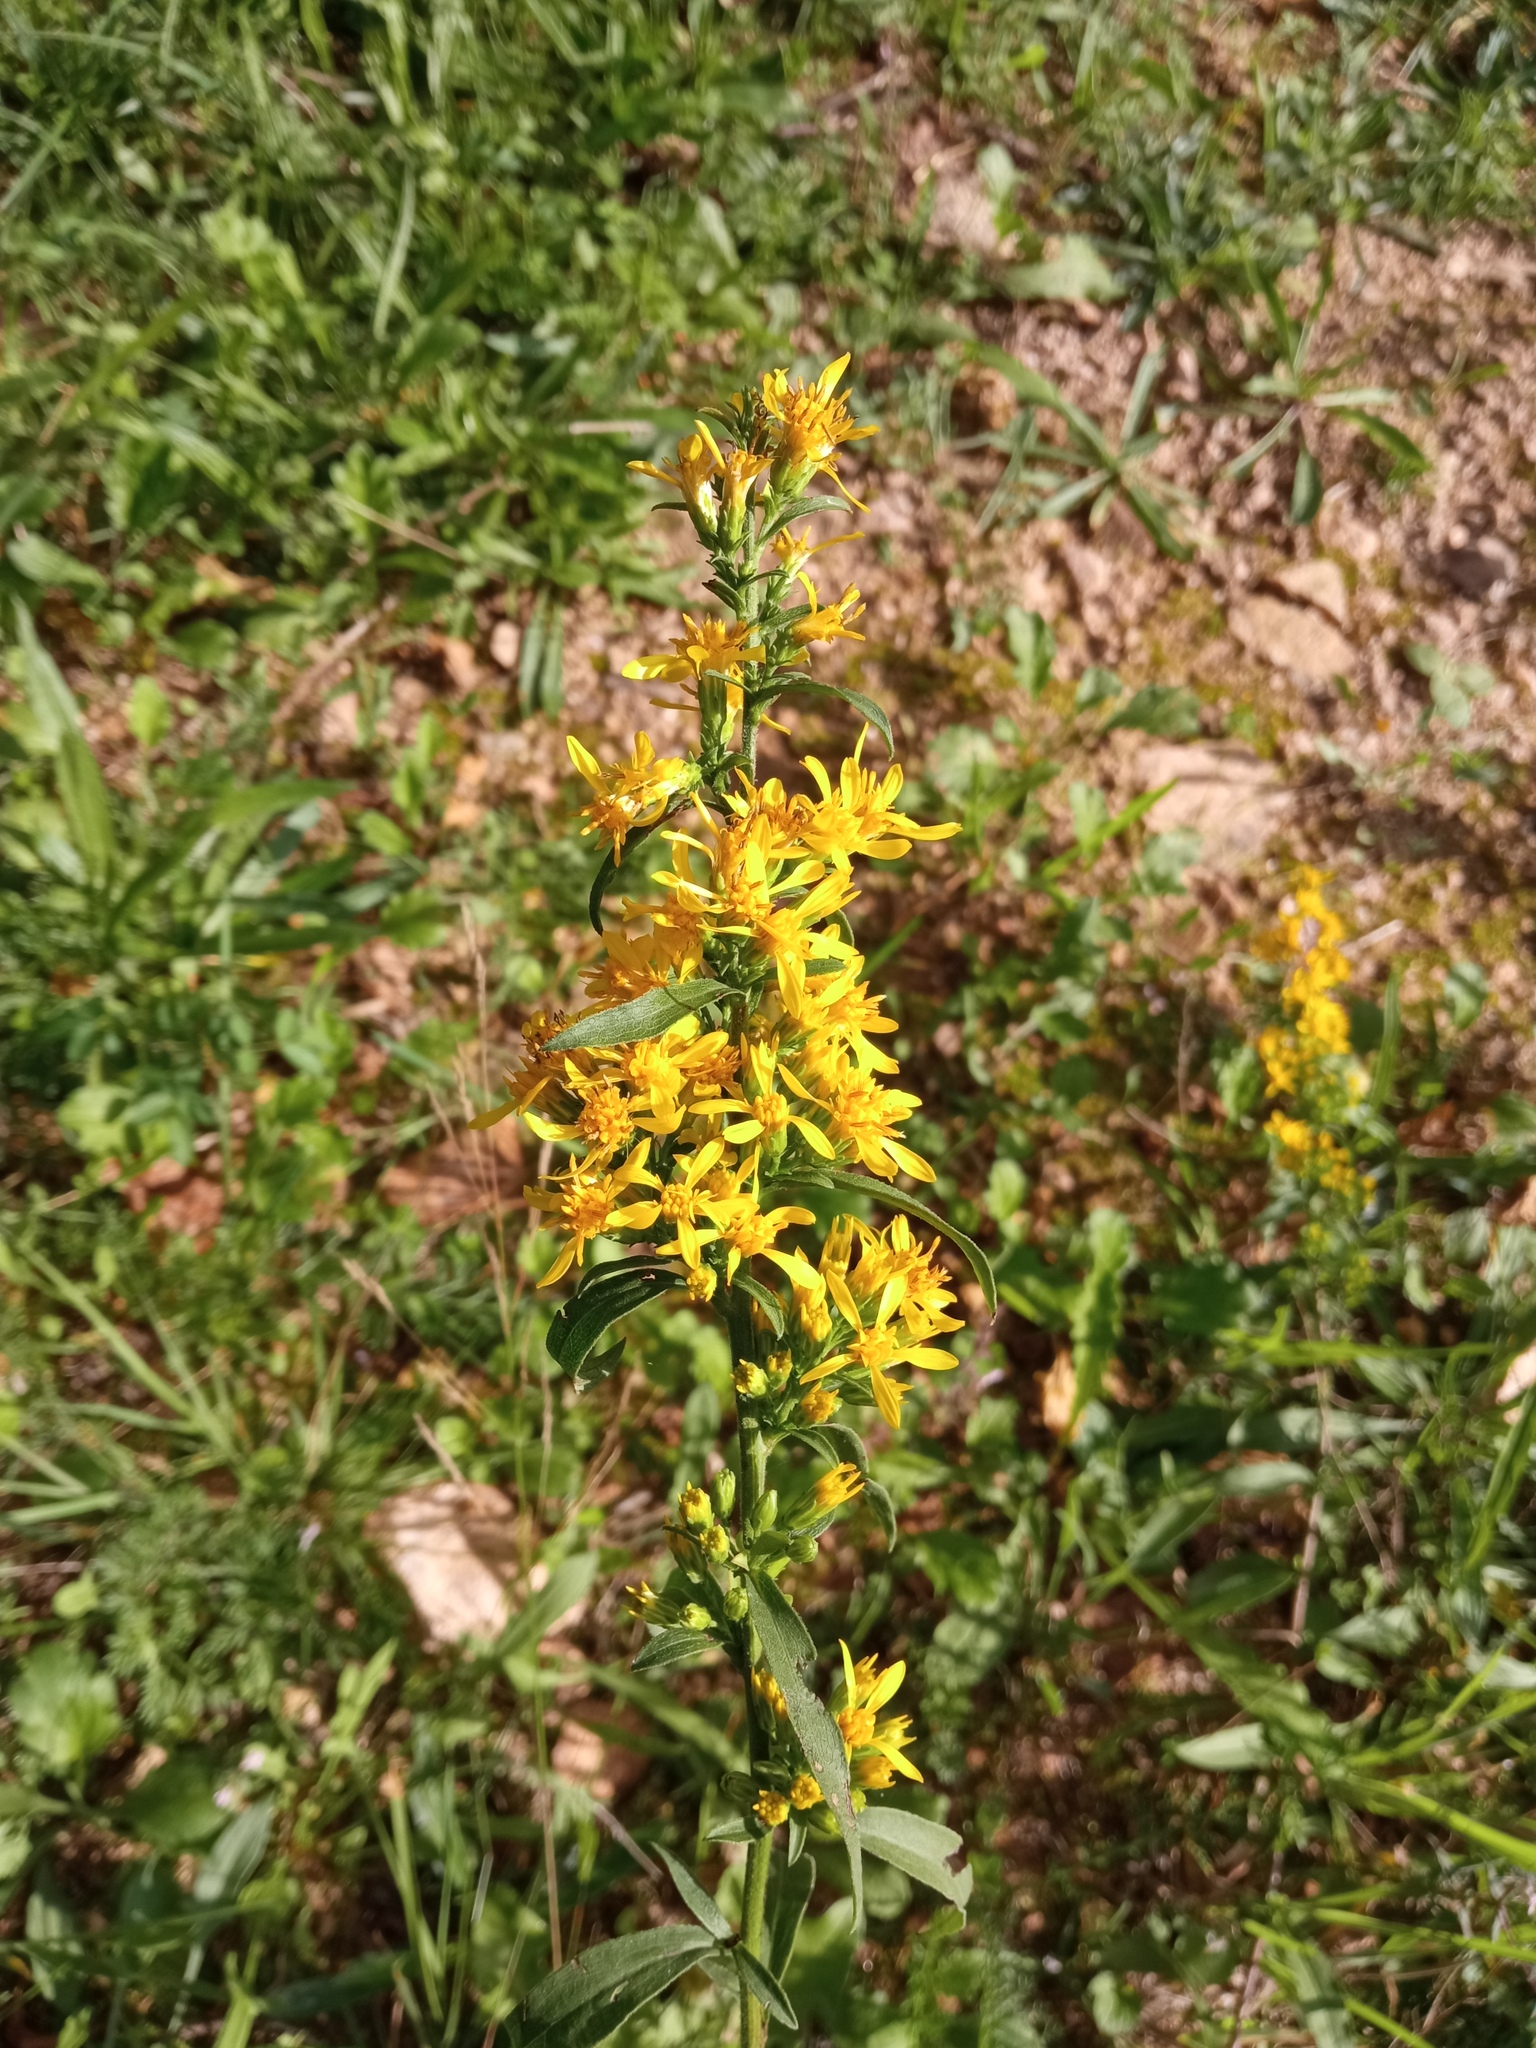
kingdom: Plantae
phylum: Tracheophyta
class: Magnoliopsida
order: Asterales
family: Asteraceae
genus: Solidago
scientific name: Solidago virgaurea
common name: Goldenrod
